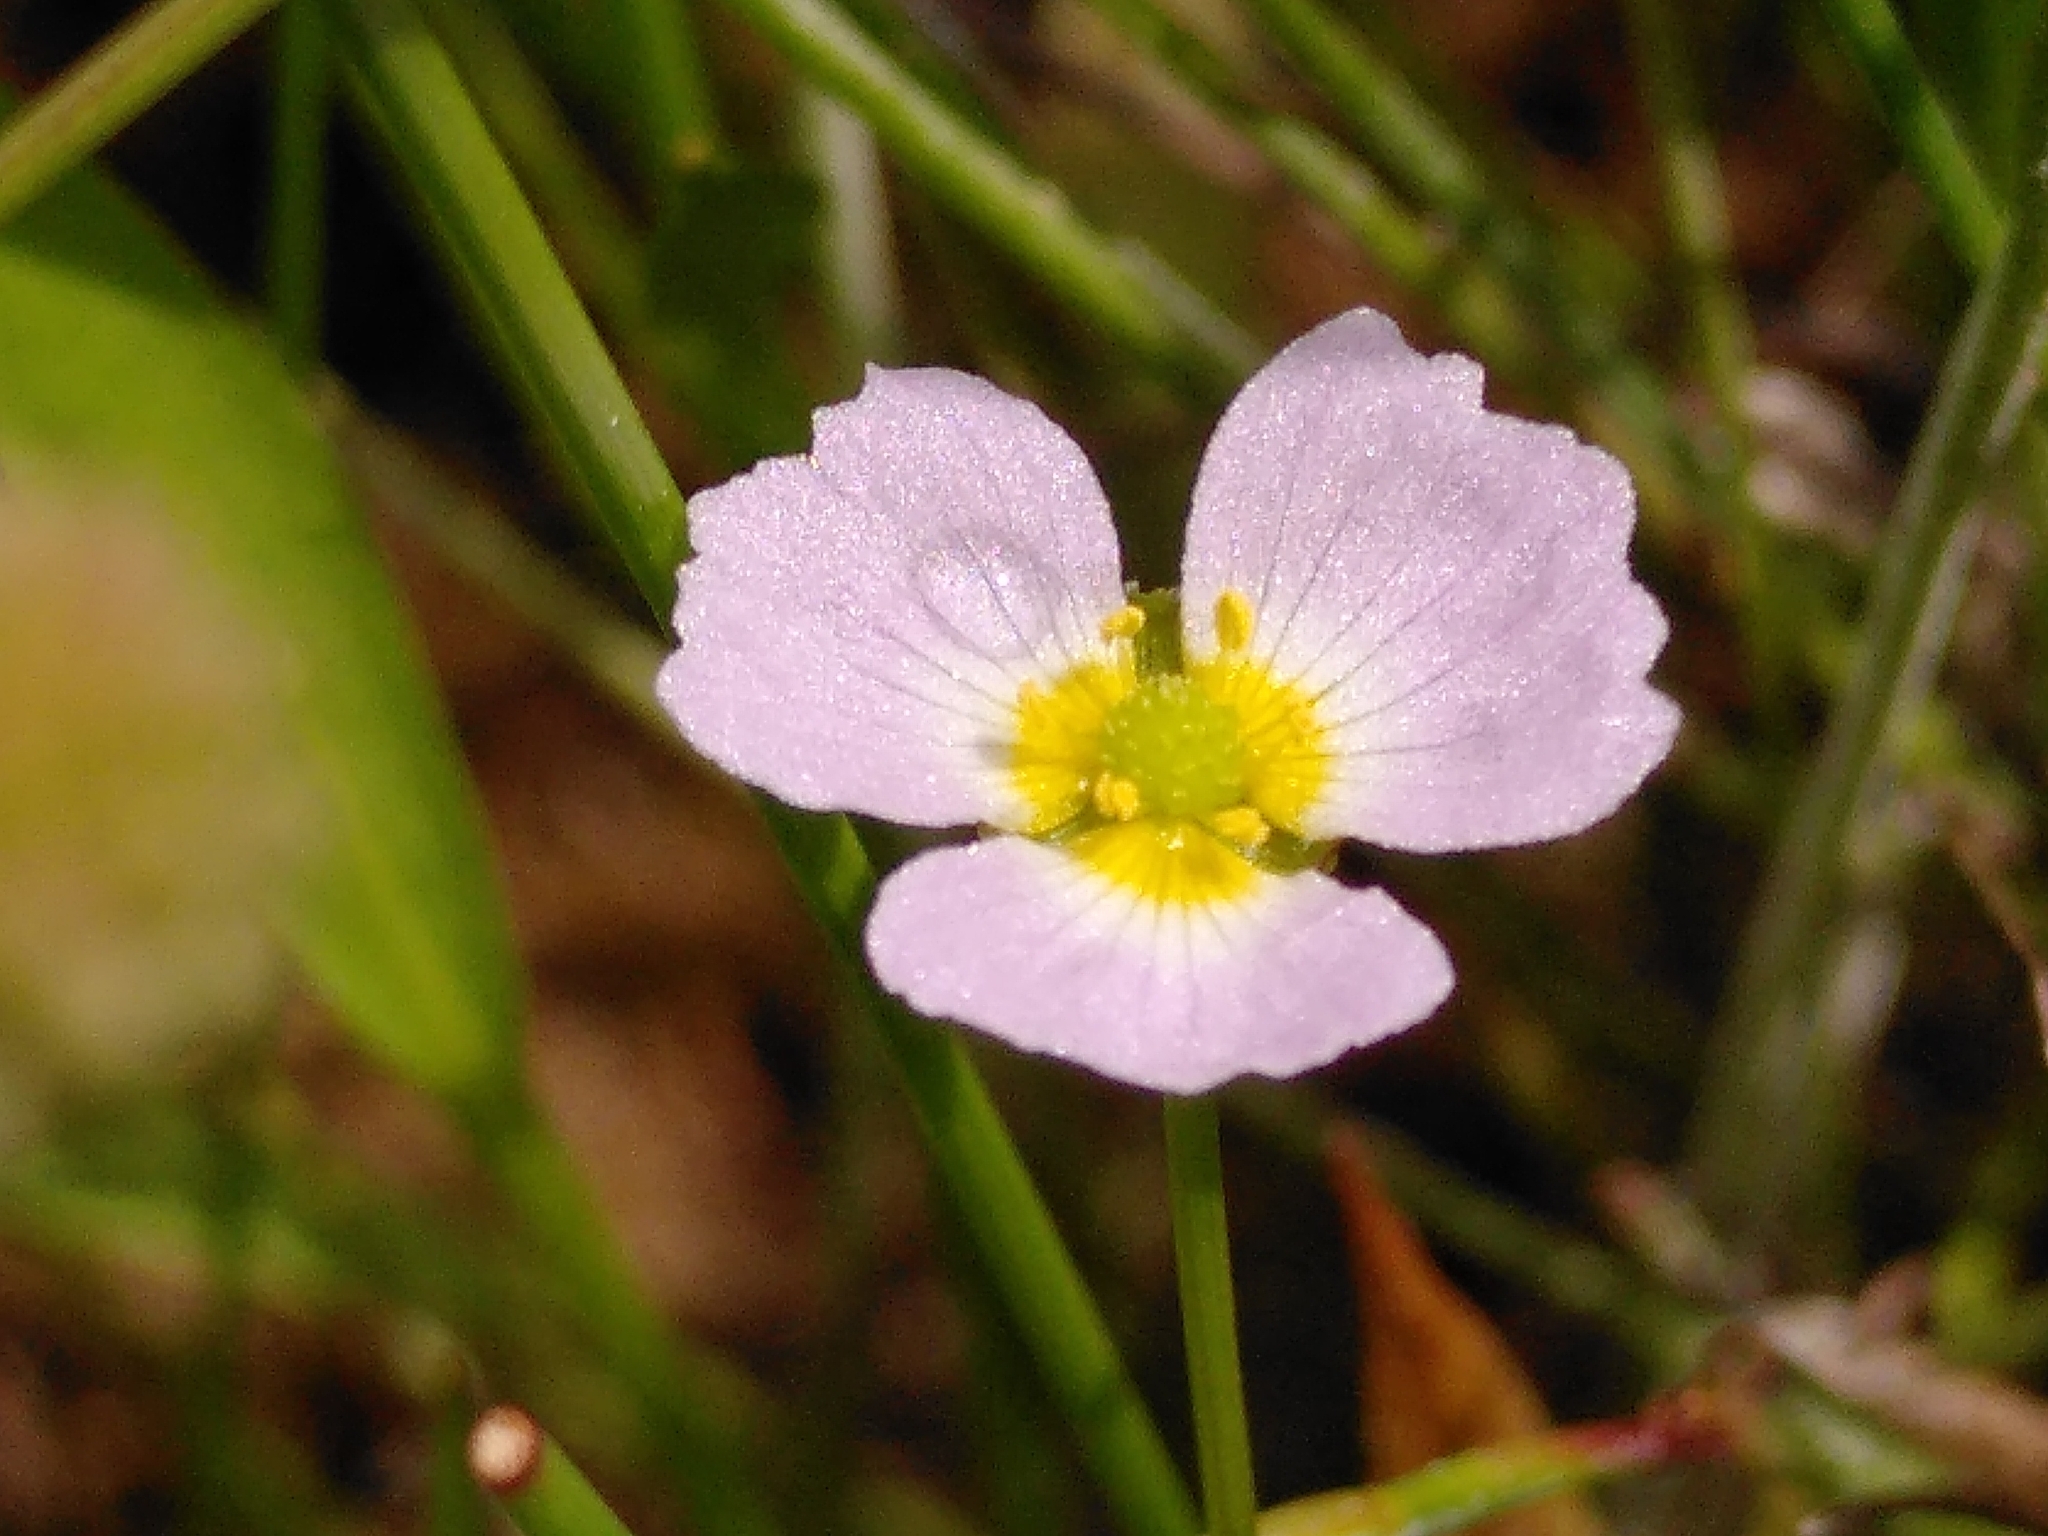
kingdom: Plantae
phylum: Tracheophyta
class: Liliopsida
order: Alismatales
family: Alismataceae
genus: Baldellia
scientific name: Baldellia ranunculoides
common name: Lesser water-plantain
